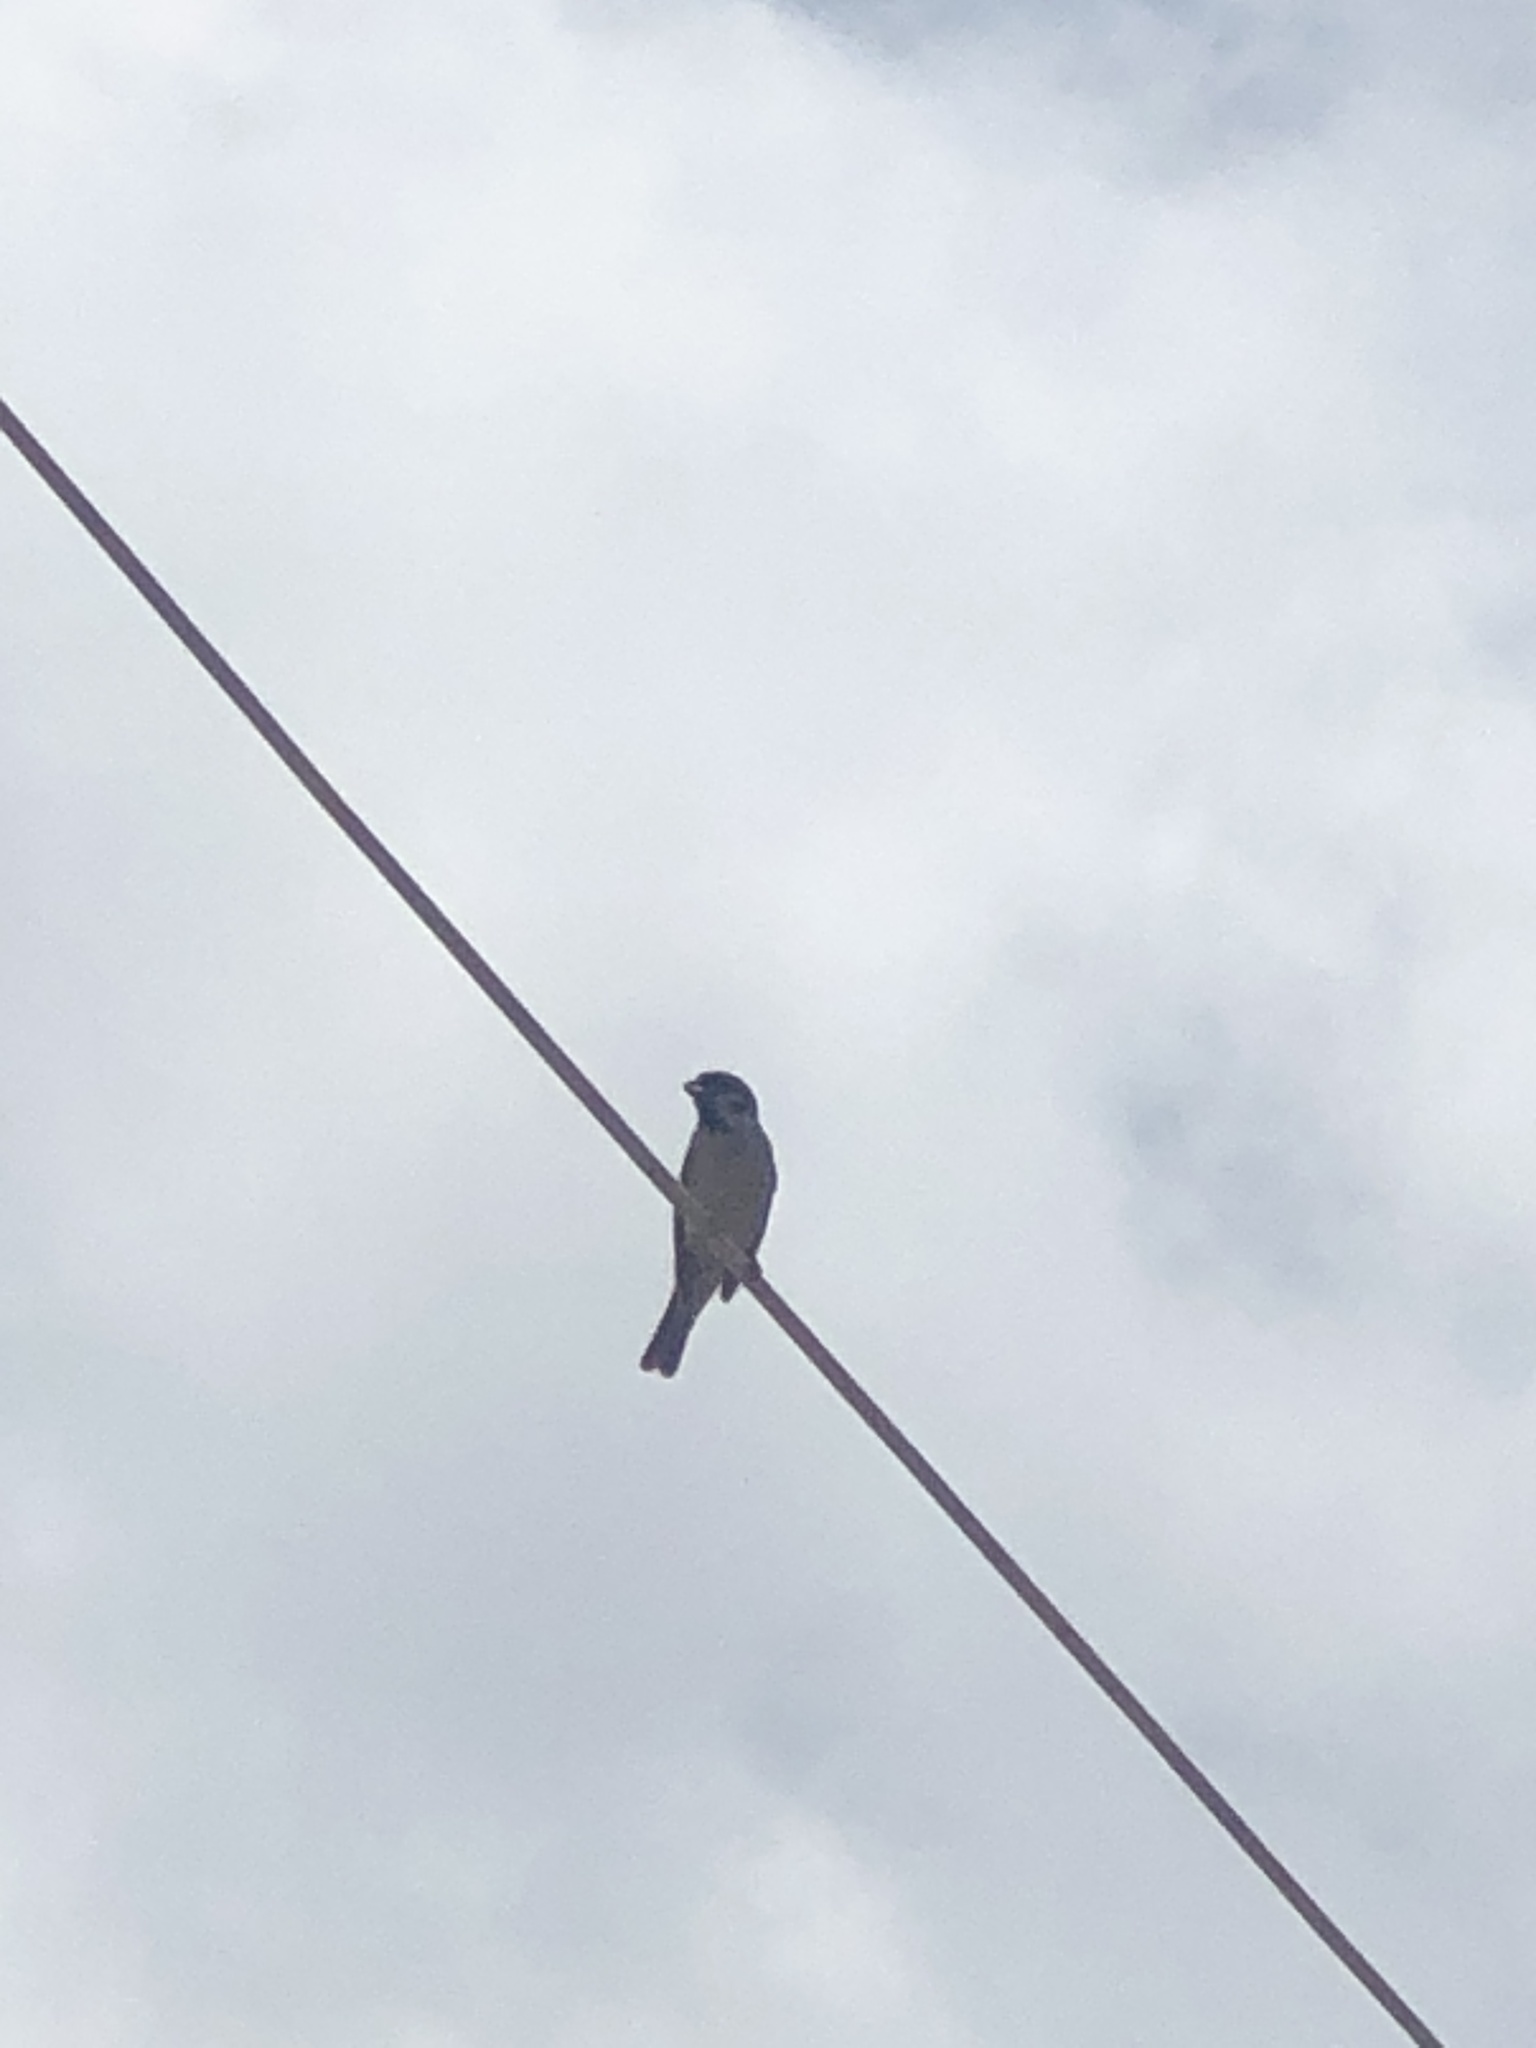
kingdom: Animalia
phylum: Chordata
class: Aves
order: Passeriformes
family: Passeridae
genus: Passer
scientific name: Passer montanus
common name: Eurasian tree sparrow
